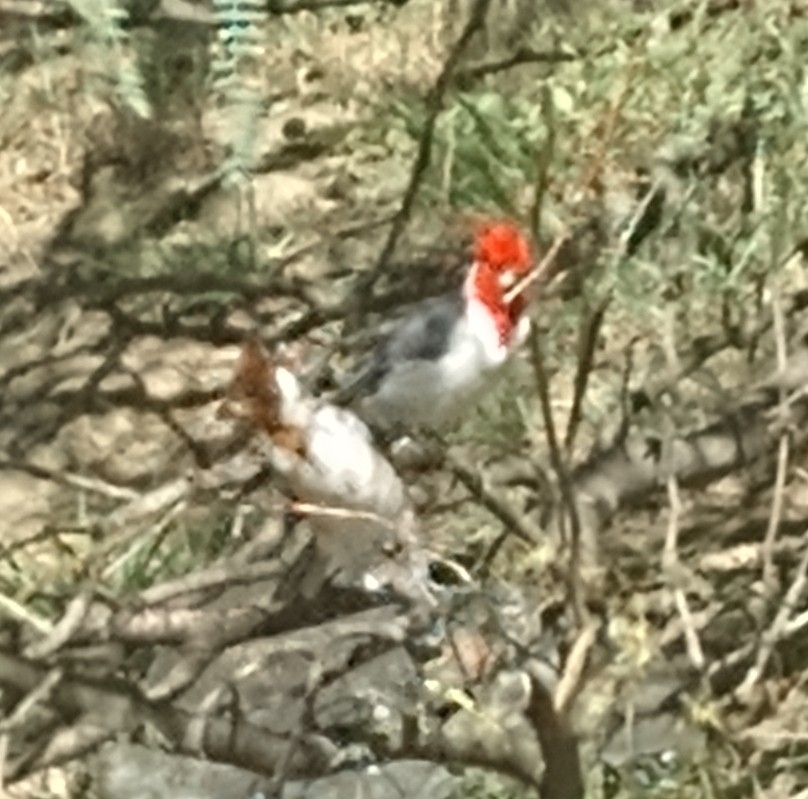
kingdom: Animalia
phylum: Chordata
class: Aves
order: Passeriformes
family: Thraupidae
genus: Paroaria
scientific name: Paroaria coronata
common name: Red-crested cardinal
